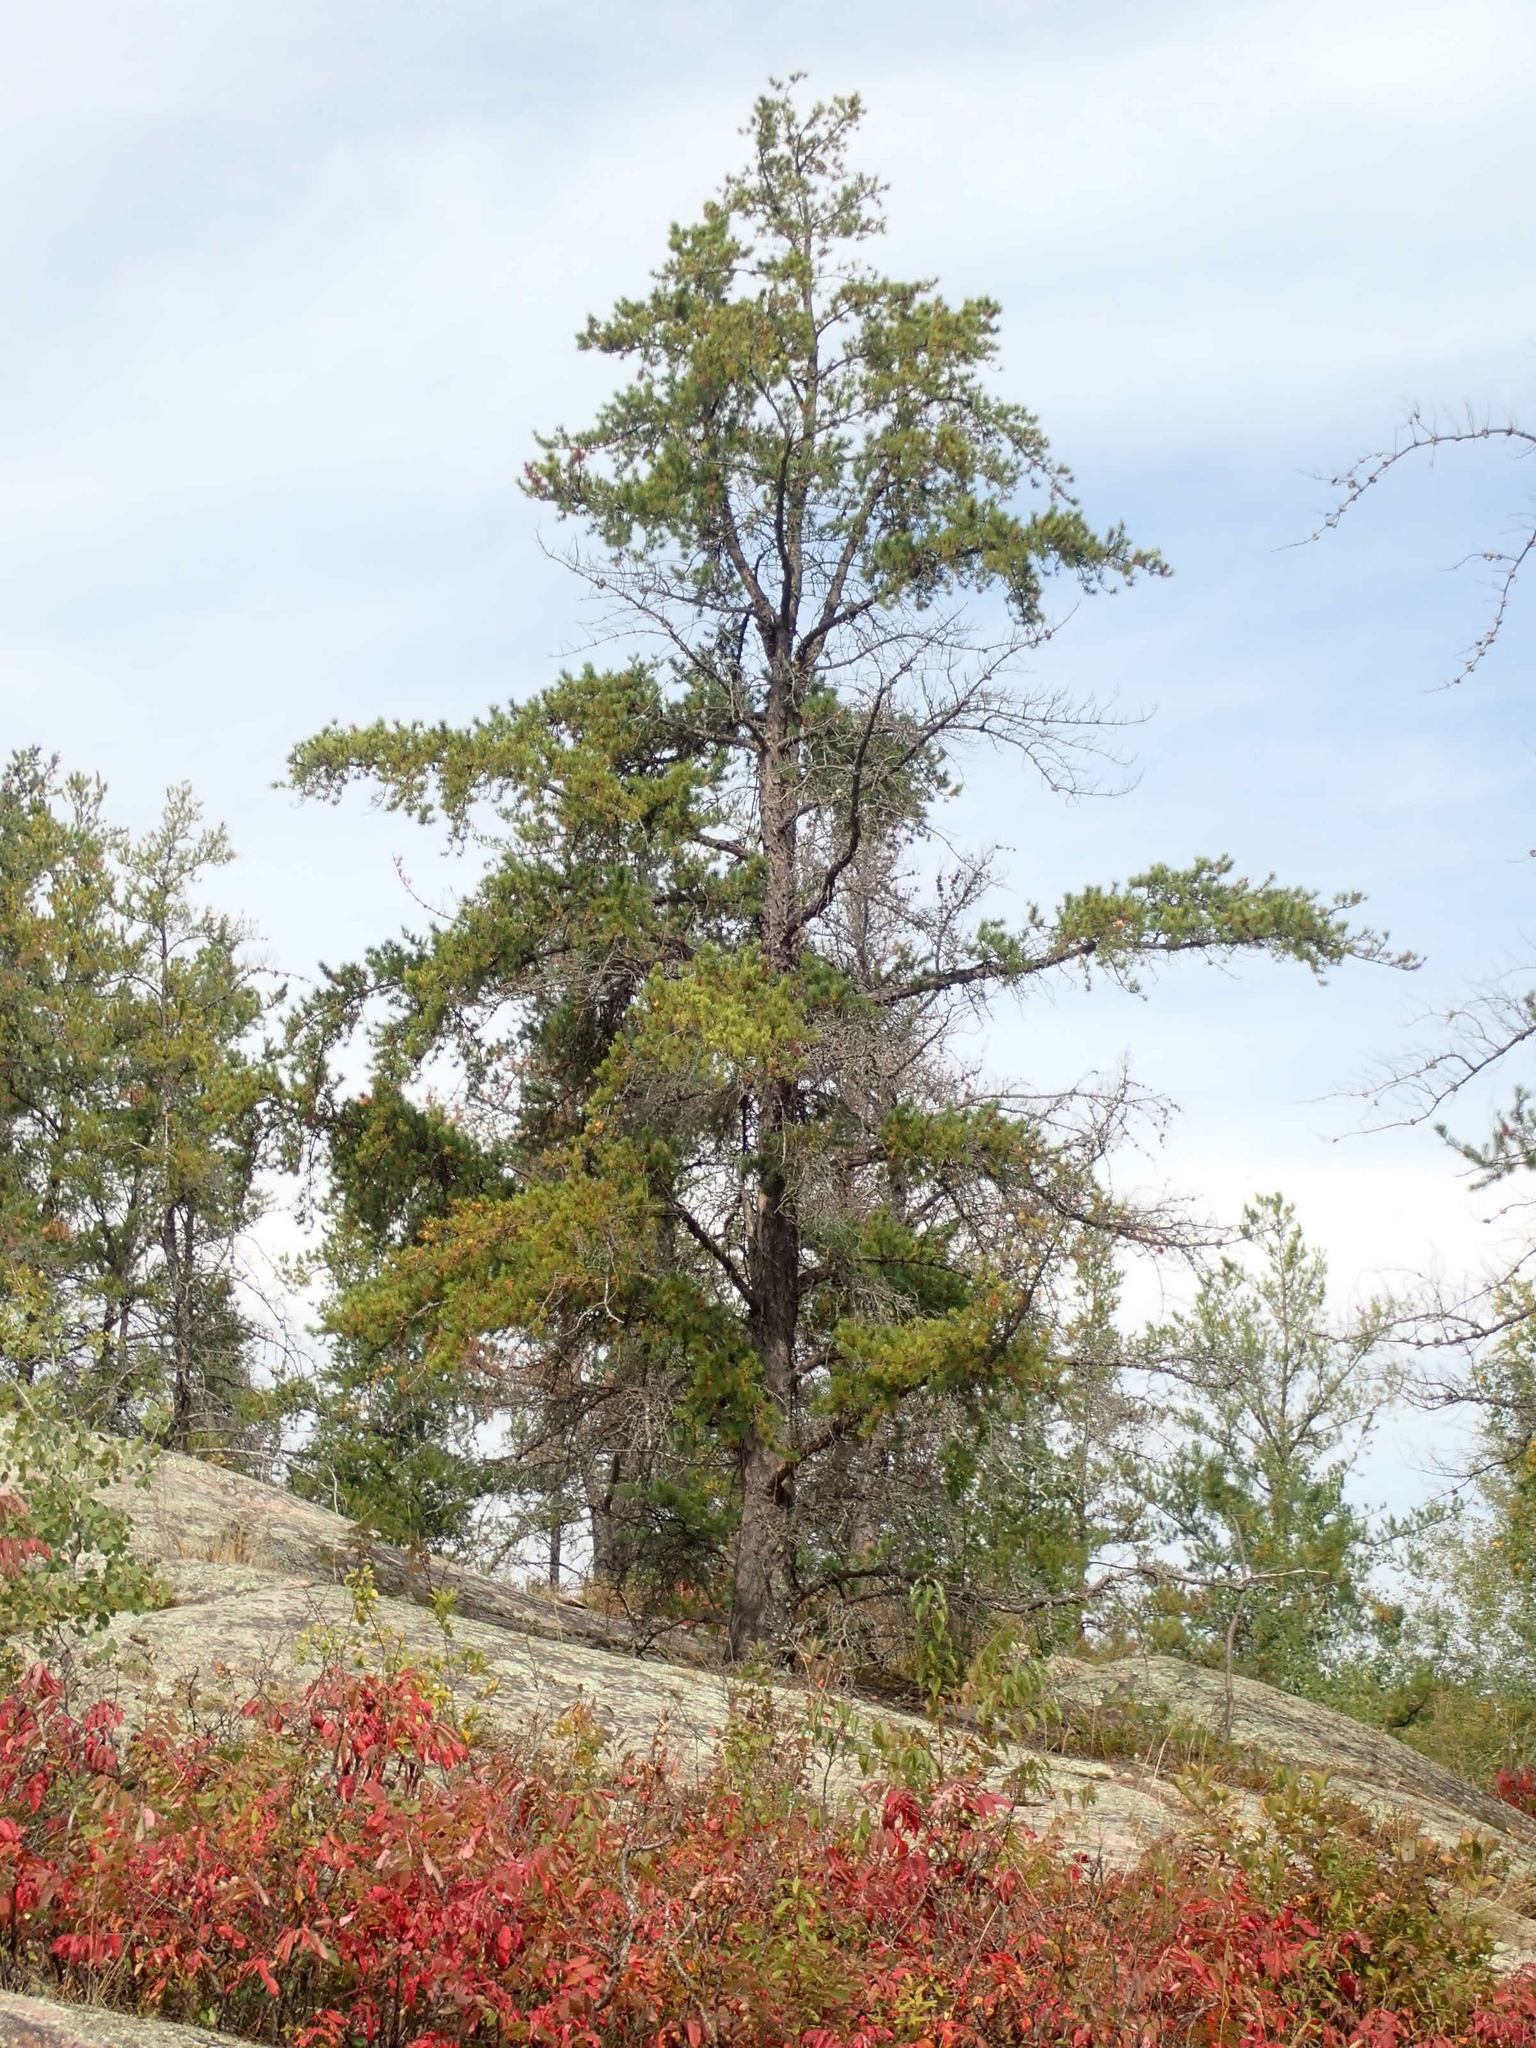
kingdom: Plantae
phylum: Tracheophyta
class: Pinopsida
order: Pinales
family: Pinaceae
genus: Pinus
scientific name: Pinus banksiana
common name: Jack pine
